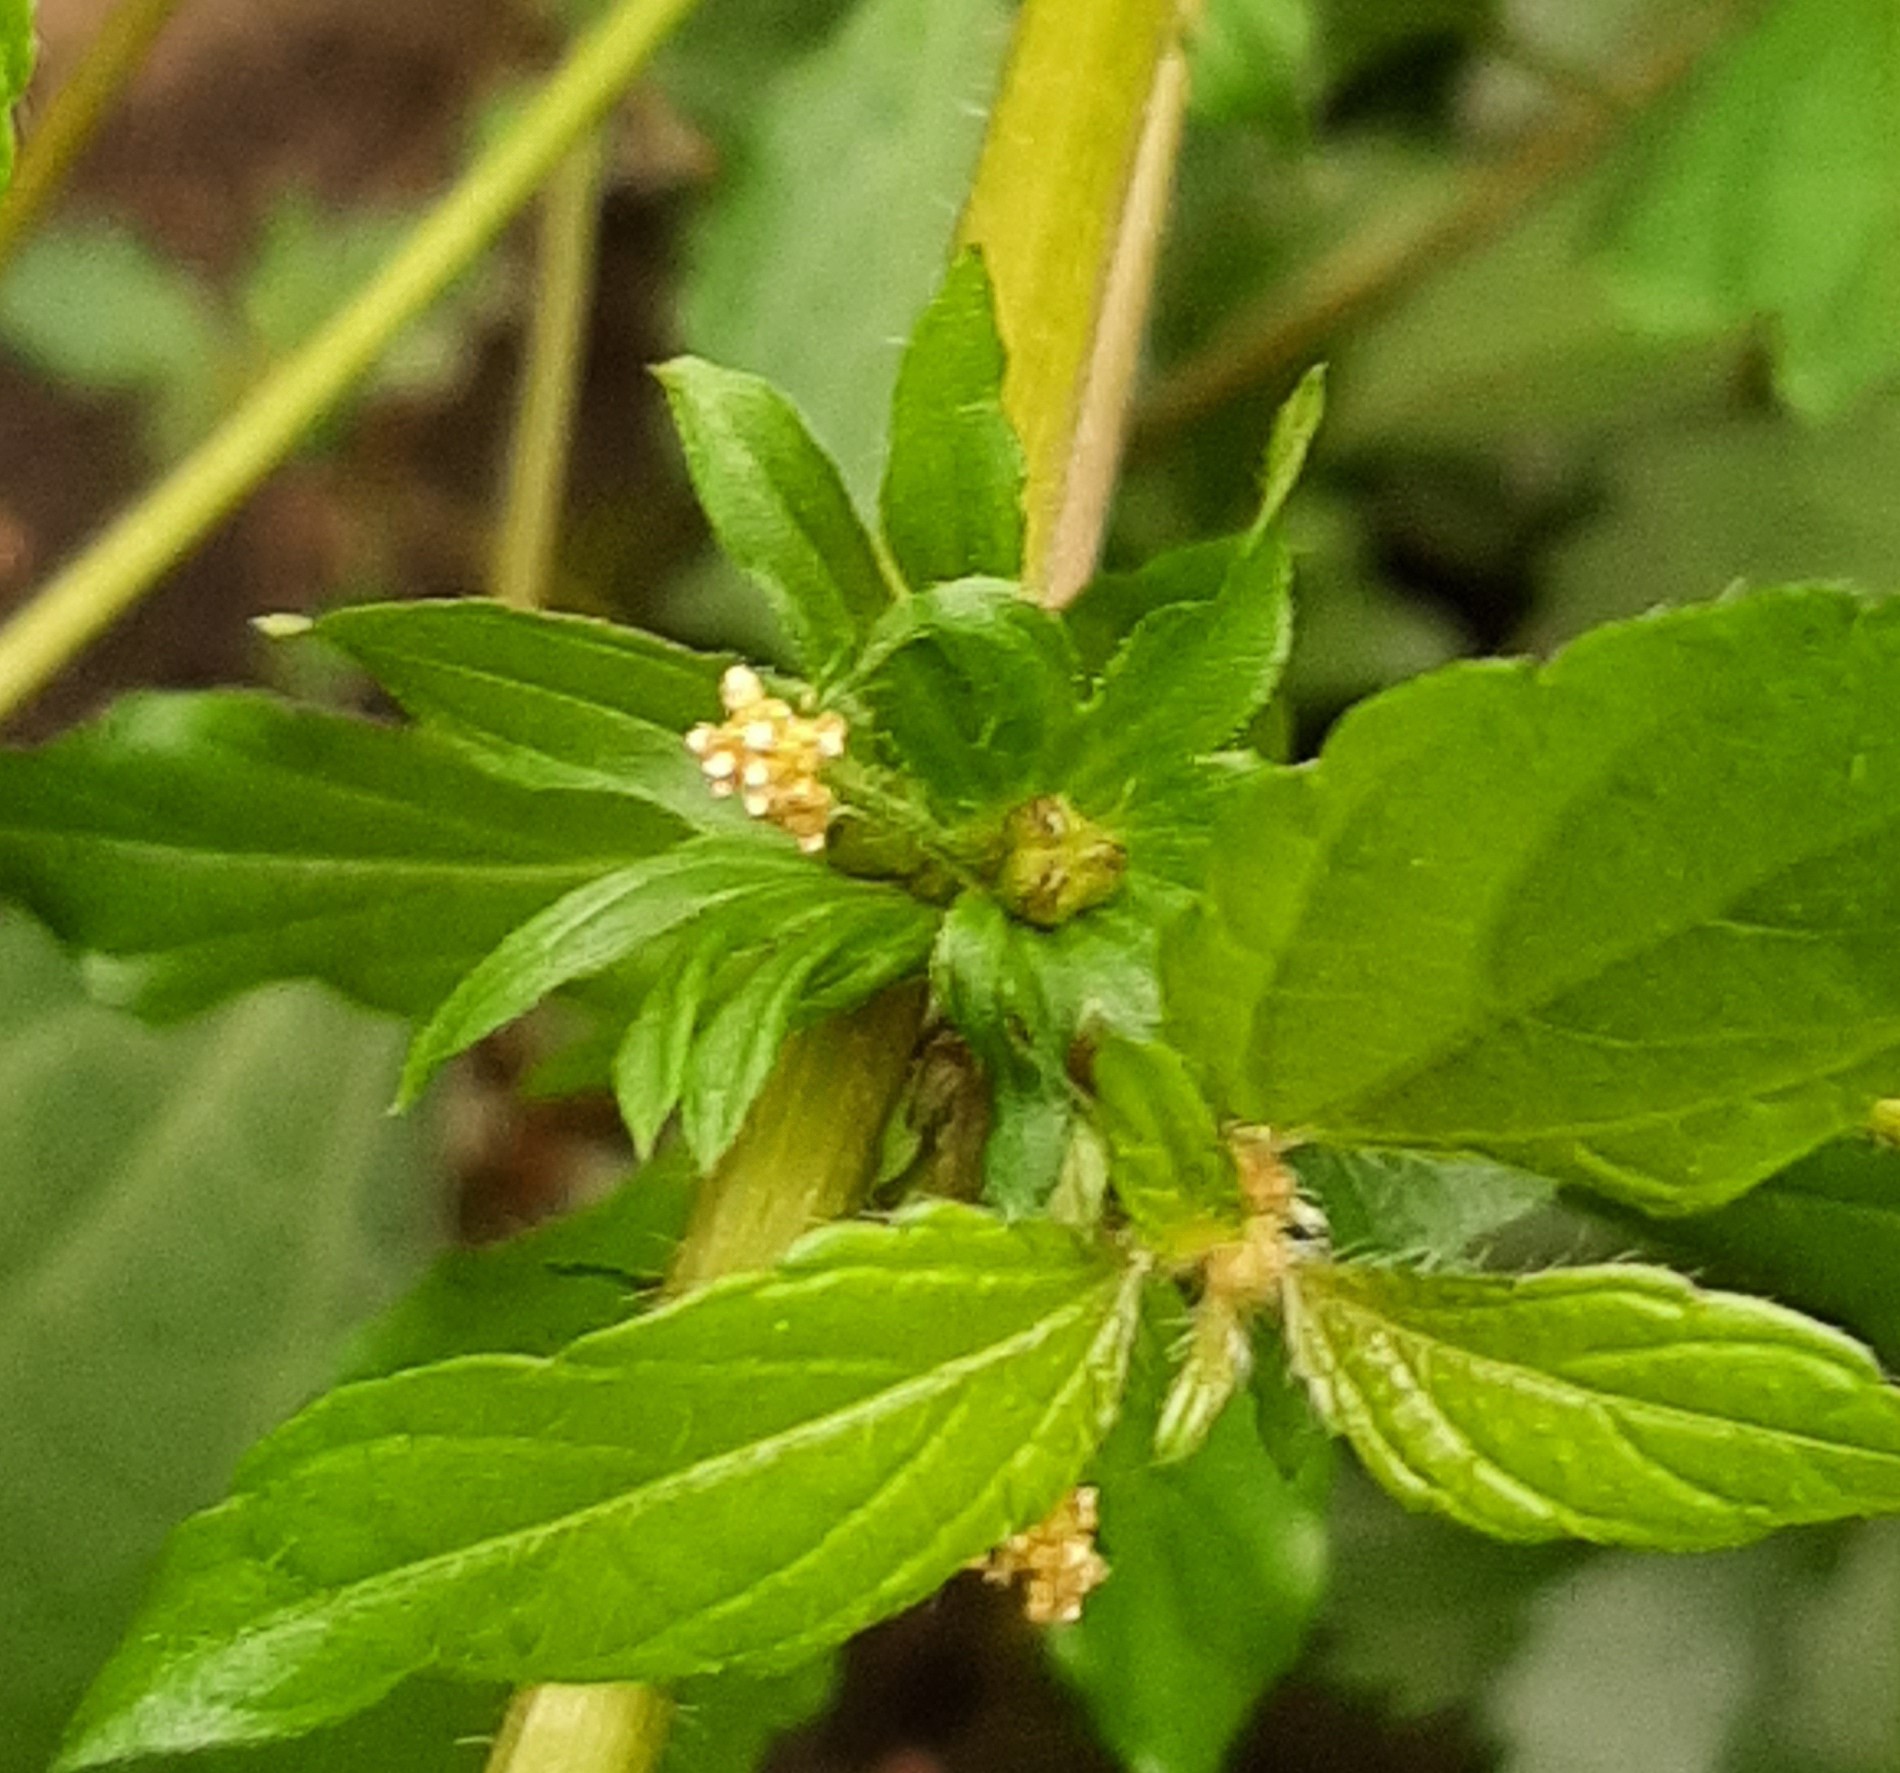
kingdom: Plantae
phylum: Tracheophyta
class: Magnoliopsida
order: Malpighiales
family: Euphorbiaceae
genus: Acalypha
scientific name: Acalypha rhomboidea
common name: Rhombic copperleaf
